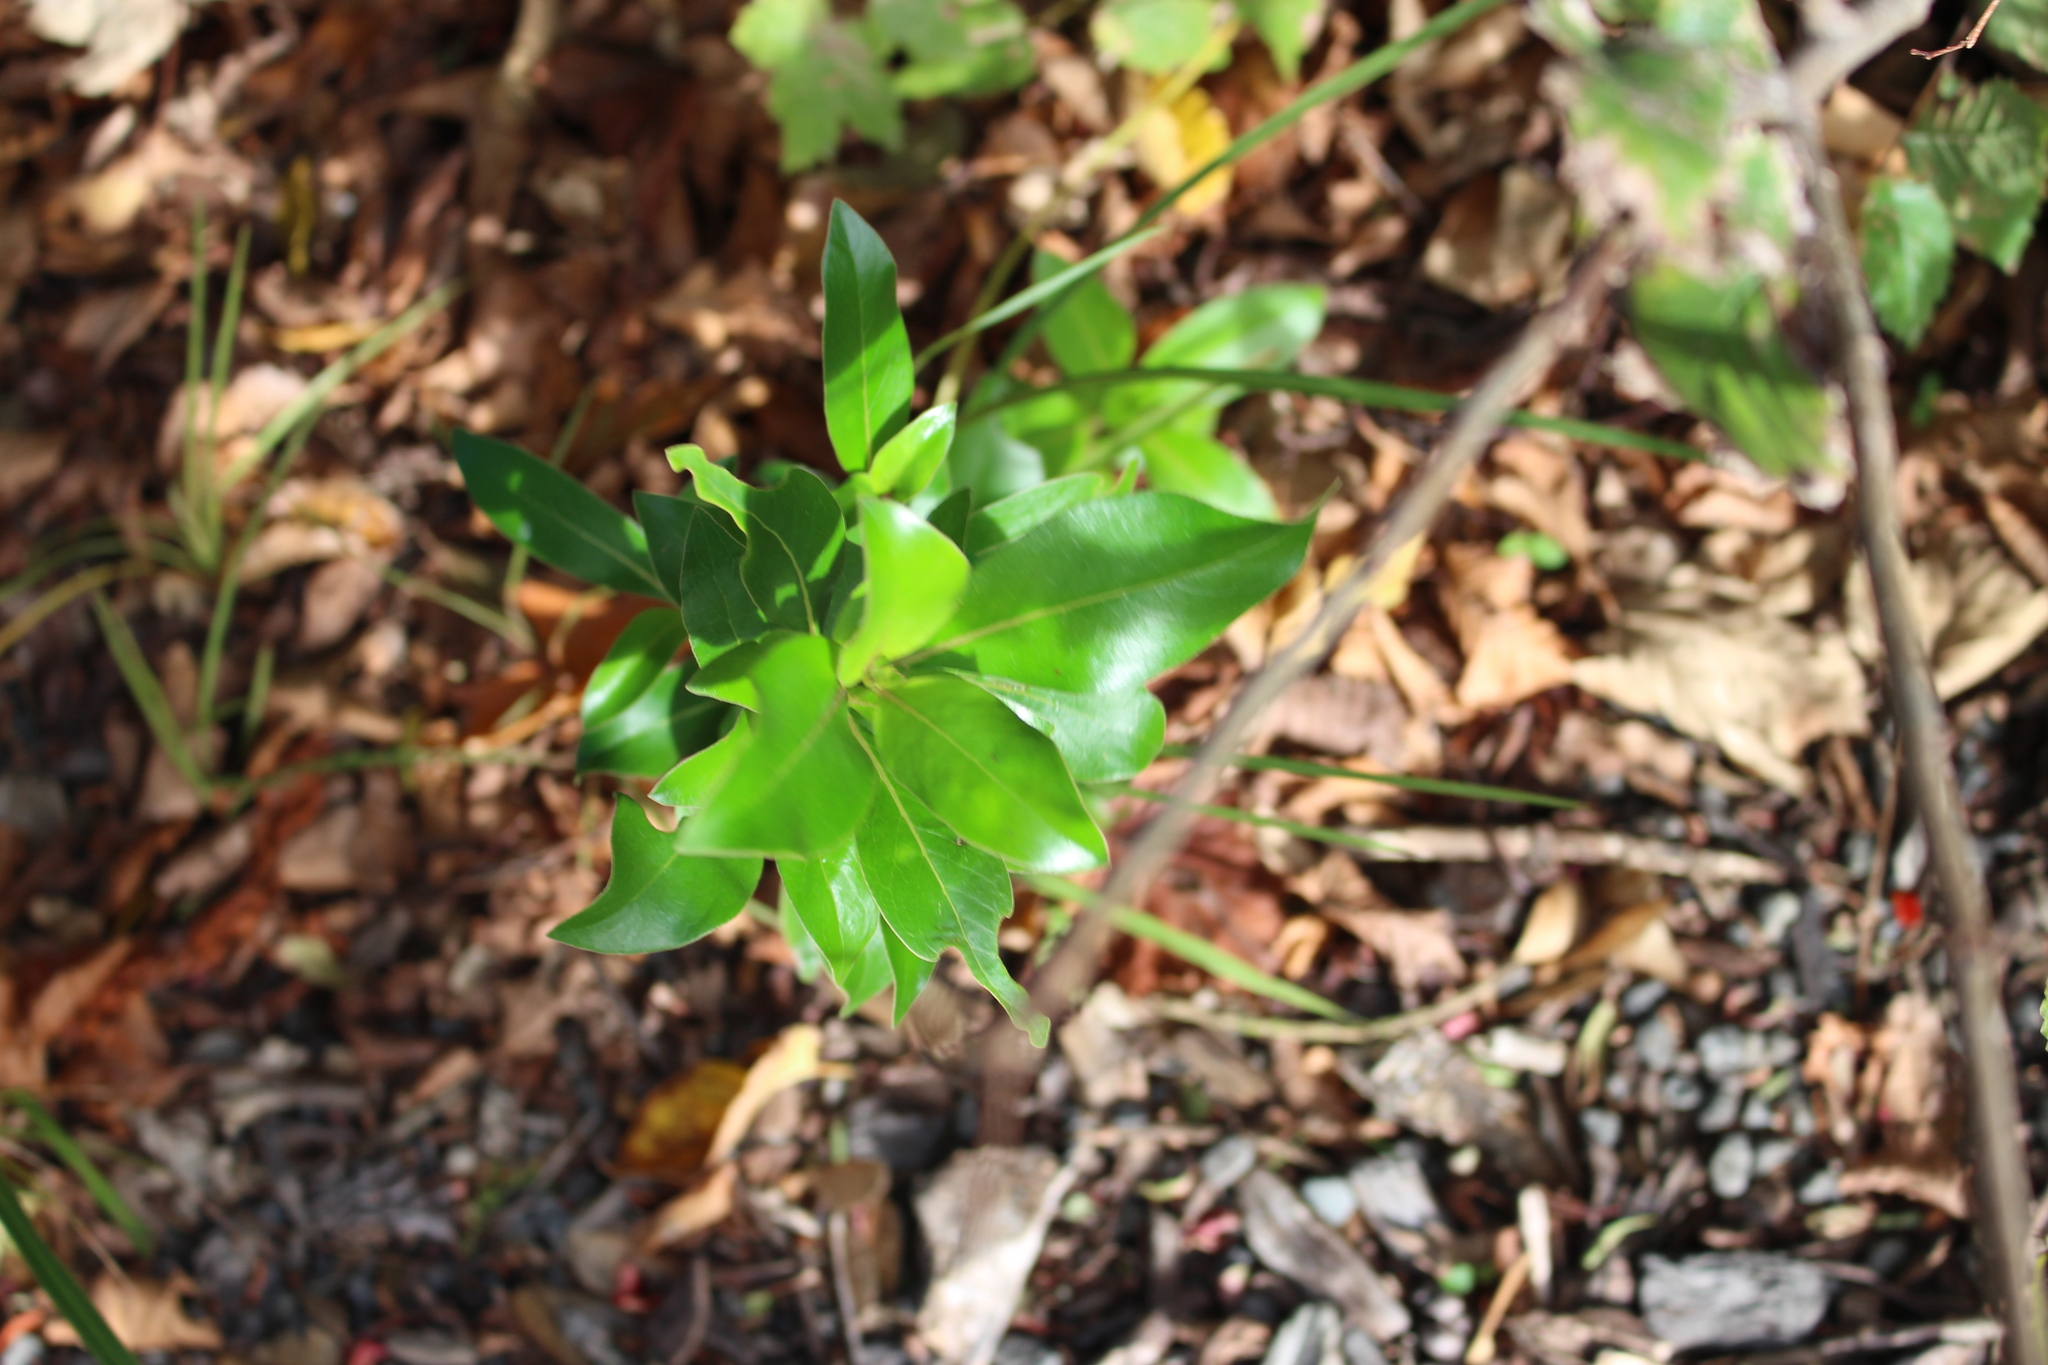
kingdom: Plantae
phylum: Tracheophyta
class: Magnoliopsida
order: Gentianales
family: Rubiaceae
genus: Coprosma
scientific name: Coprosma robusta
